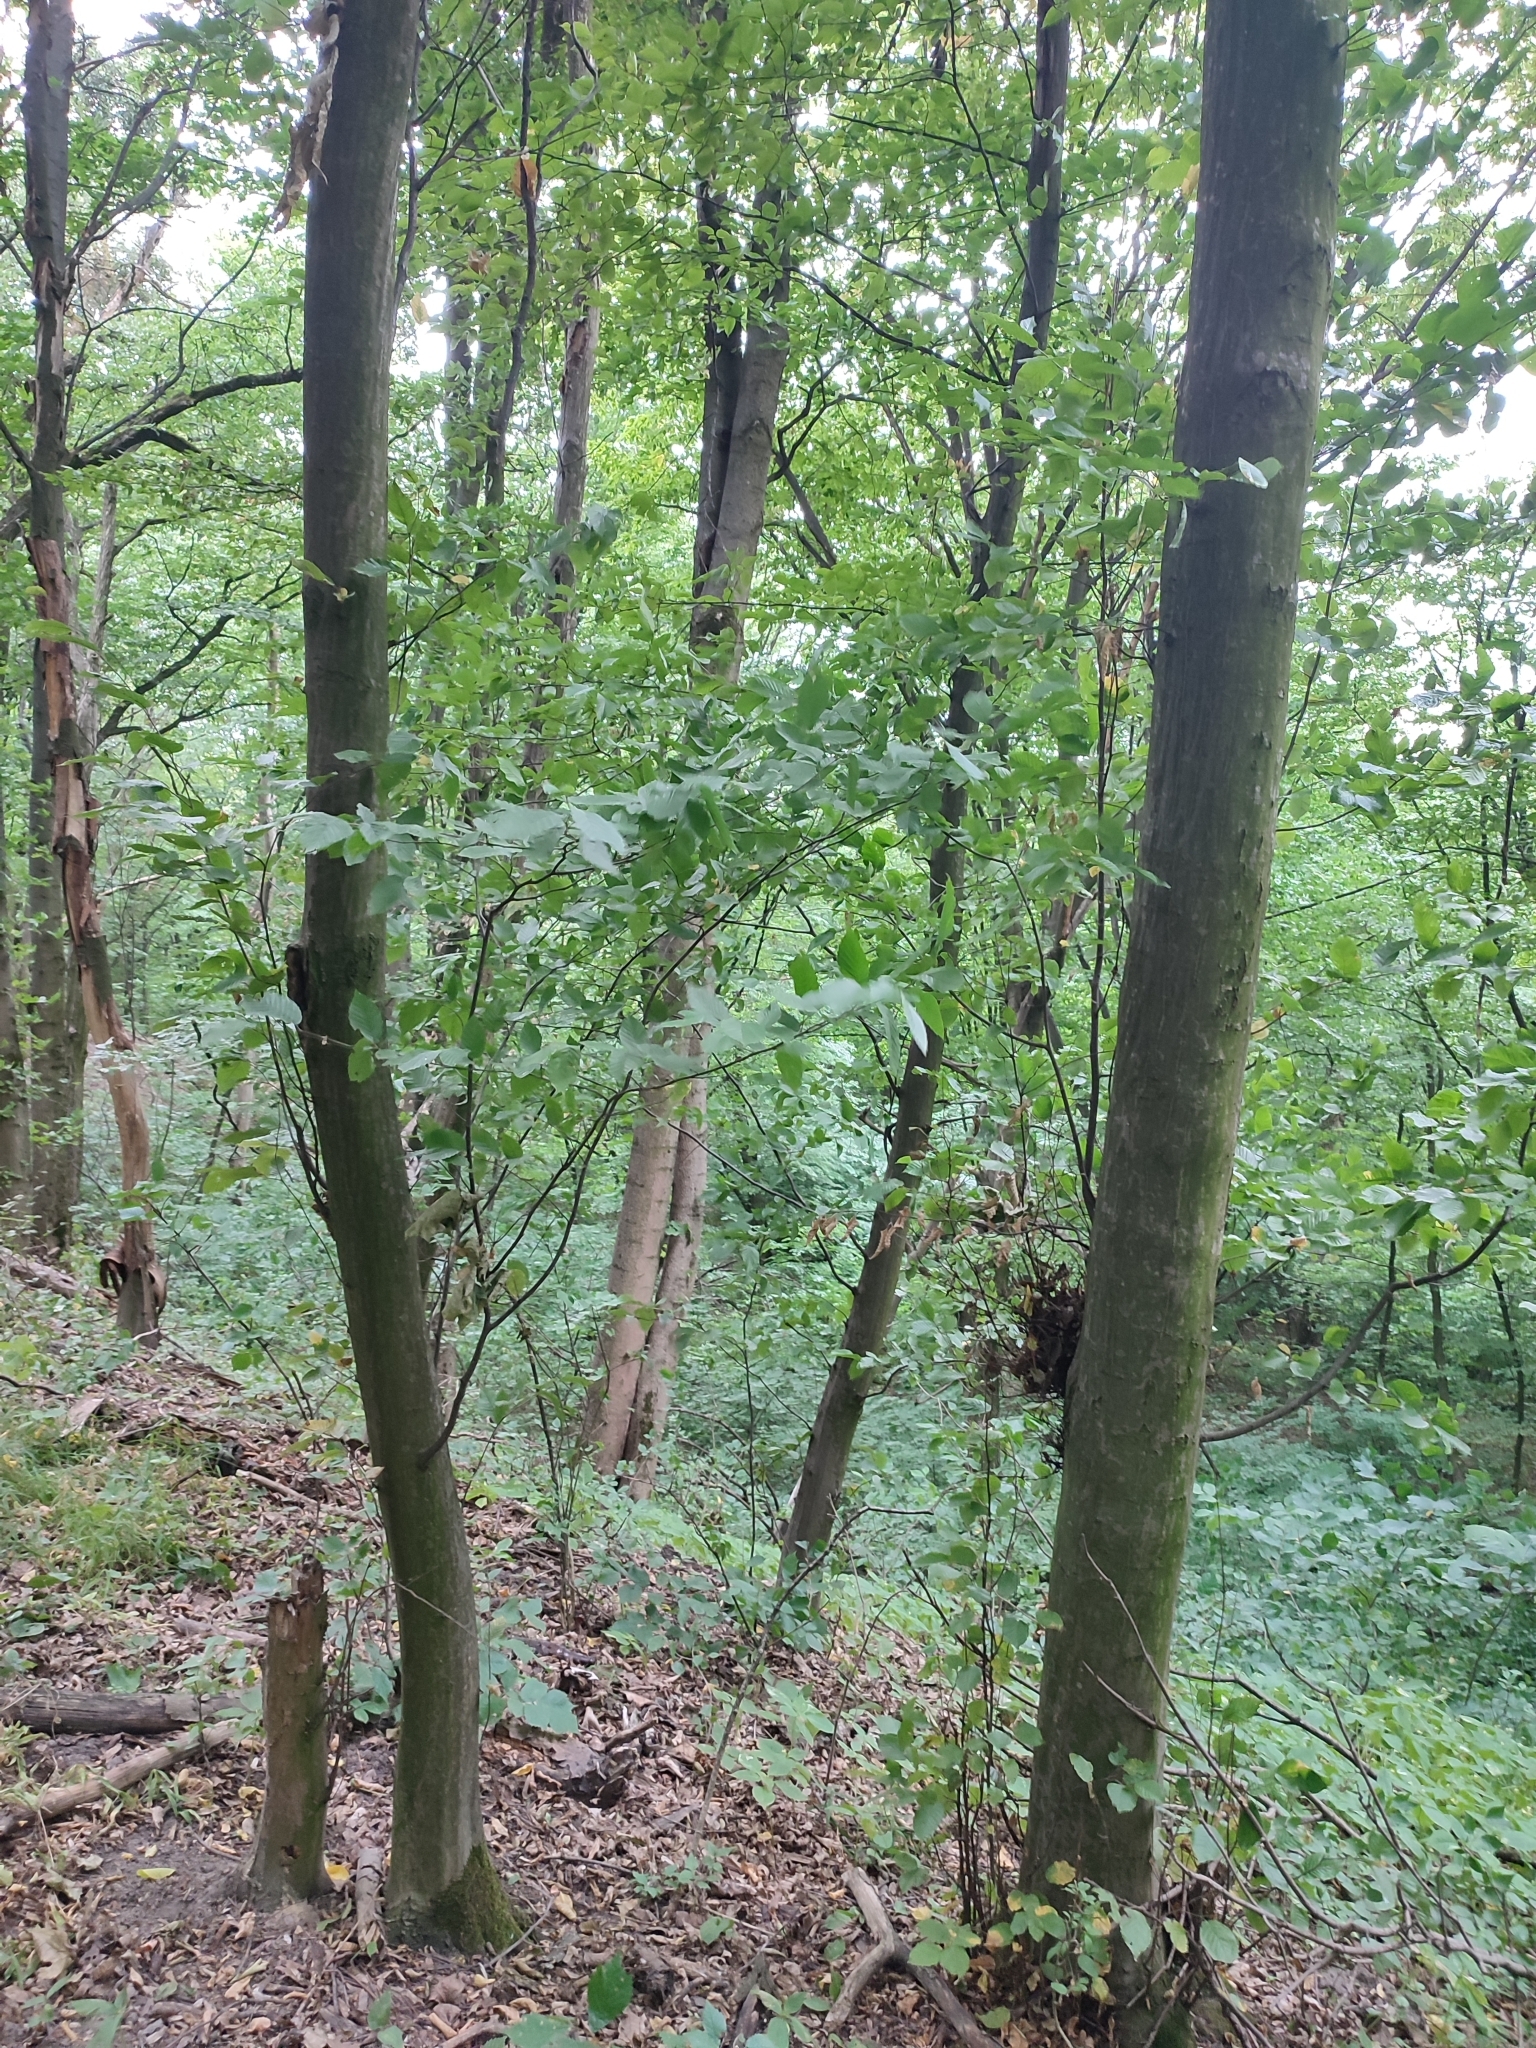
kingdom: Plantae
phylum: Tracheophyta
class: Magnoliopsida
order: Fagales
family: Betulaceae
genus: Carpinus
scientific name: Carpinus betulus
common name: Hornbeam
